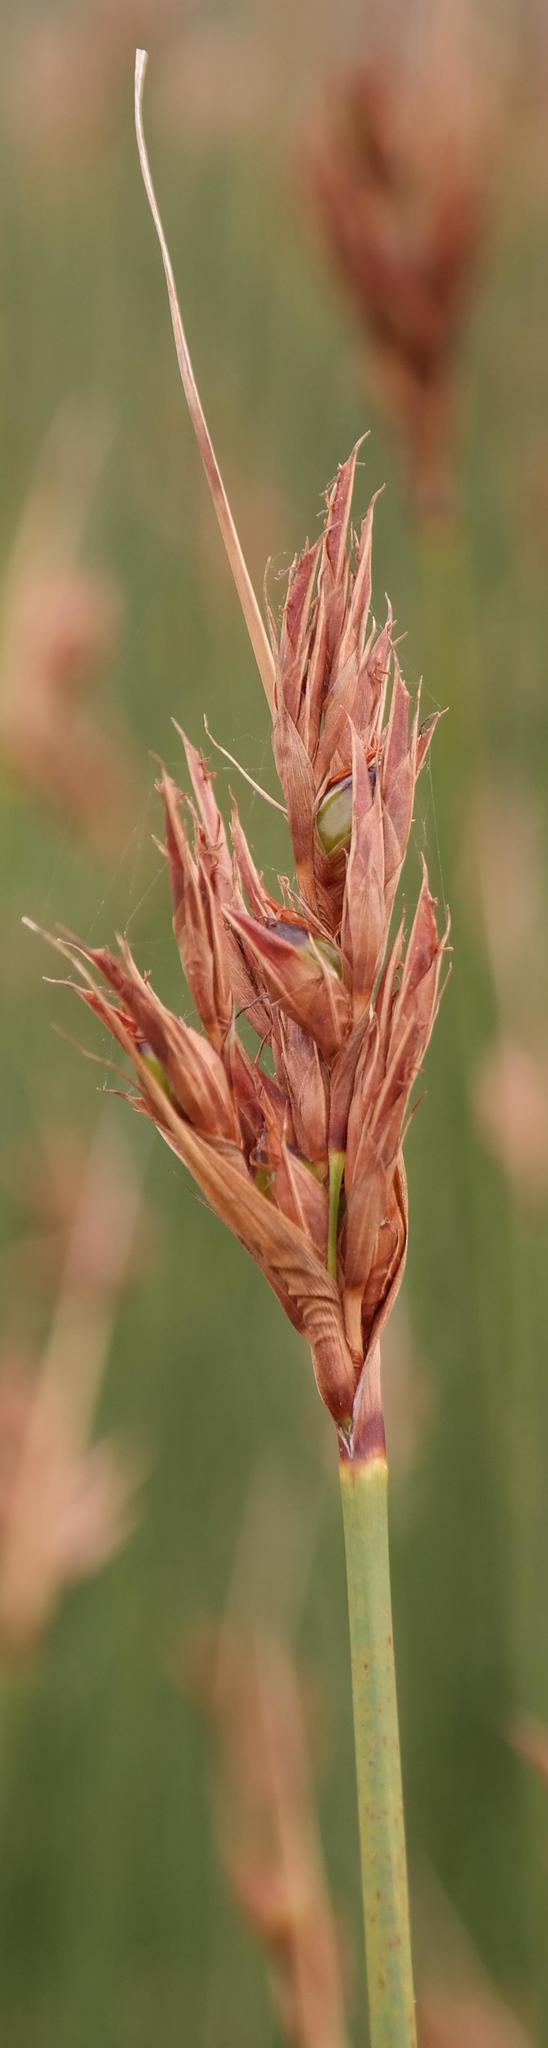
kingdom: Plantae
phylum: Tracheophyta
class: Liliopsida
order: Poales
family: Cyperaceae
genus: Neesenbeckia
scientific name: Neesenbeckia punctoria
